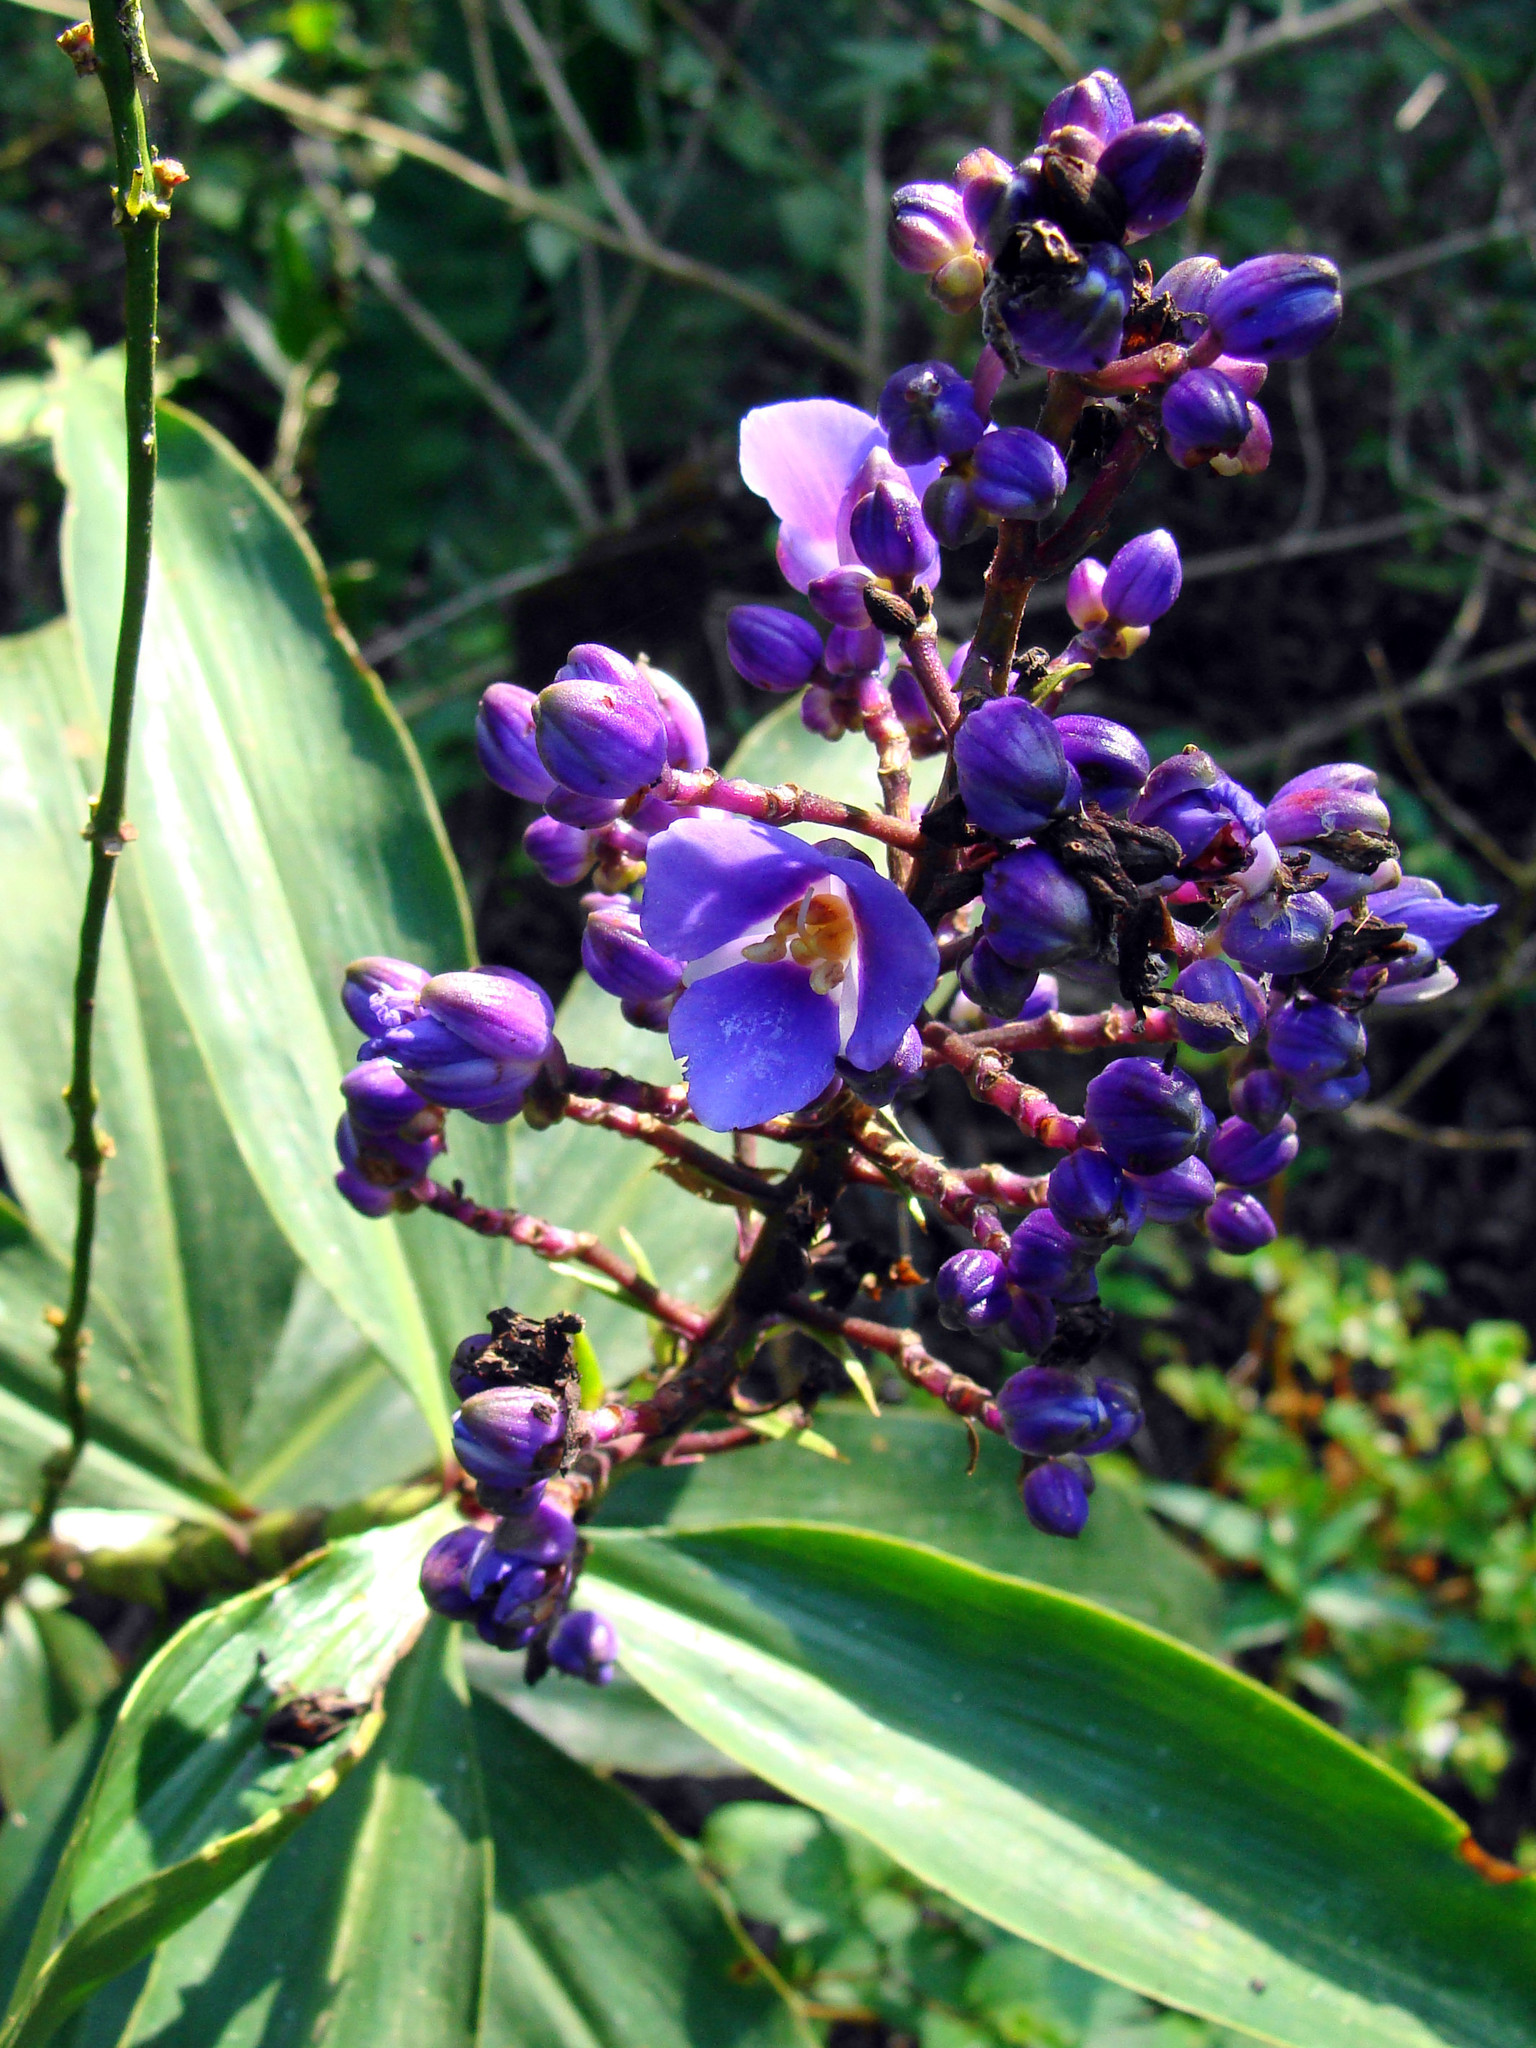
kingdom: Plantae
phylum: Tracheophyta
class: Liliopsida
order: Commelinales
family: Commelinaceae
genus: Dichorisandra
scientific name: Dichorisandra thyrsiflora
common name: Blue-ginger
